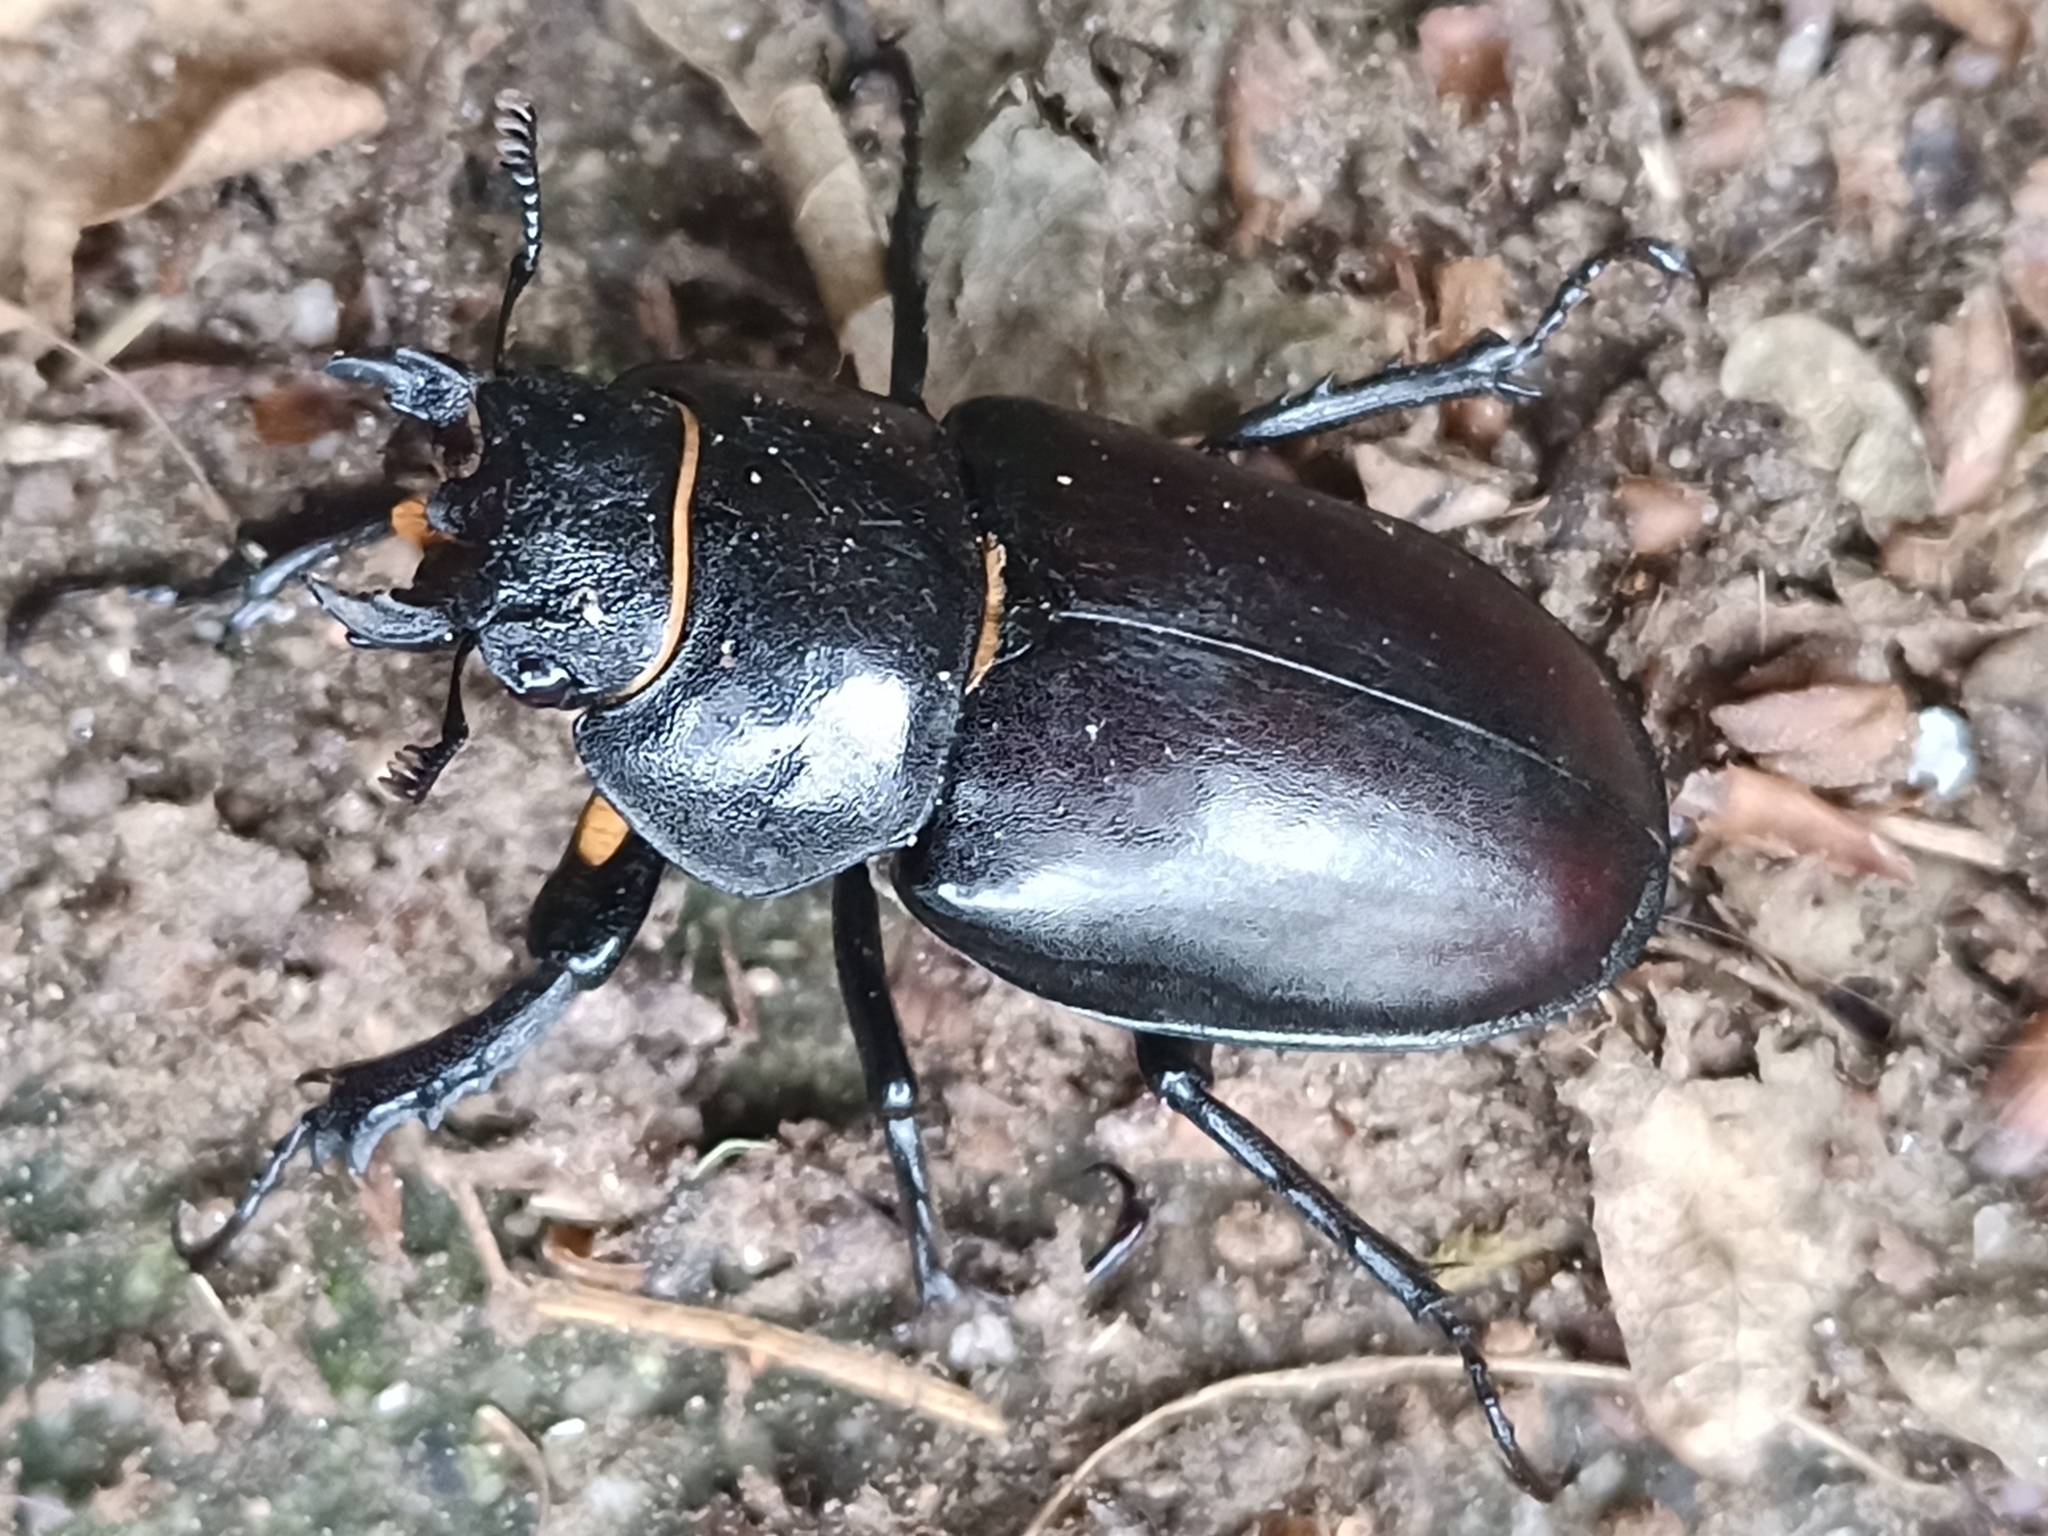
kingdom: Animalia
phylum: Arthropoda
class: Insecta
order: Coleoptera
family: Lucanidae
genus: Lucanus
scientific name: Lucanus cervus
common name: Stag beetle
